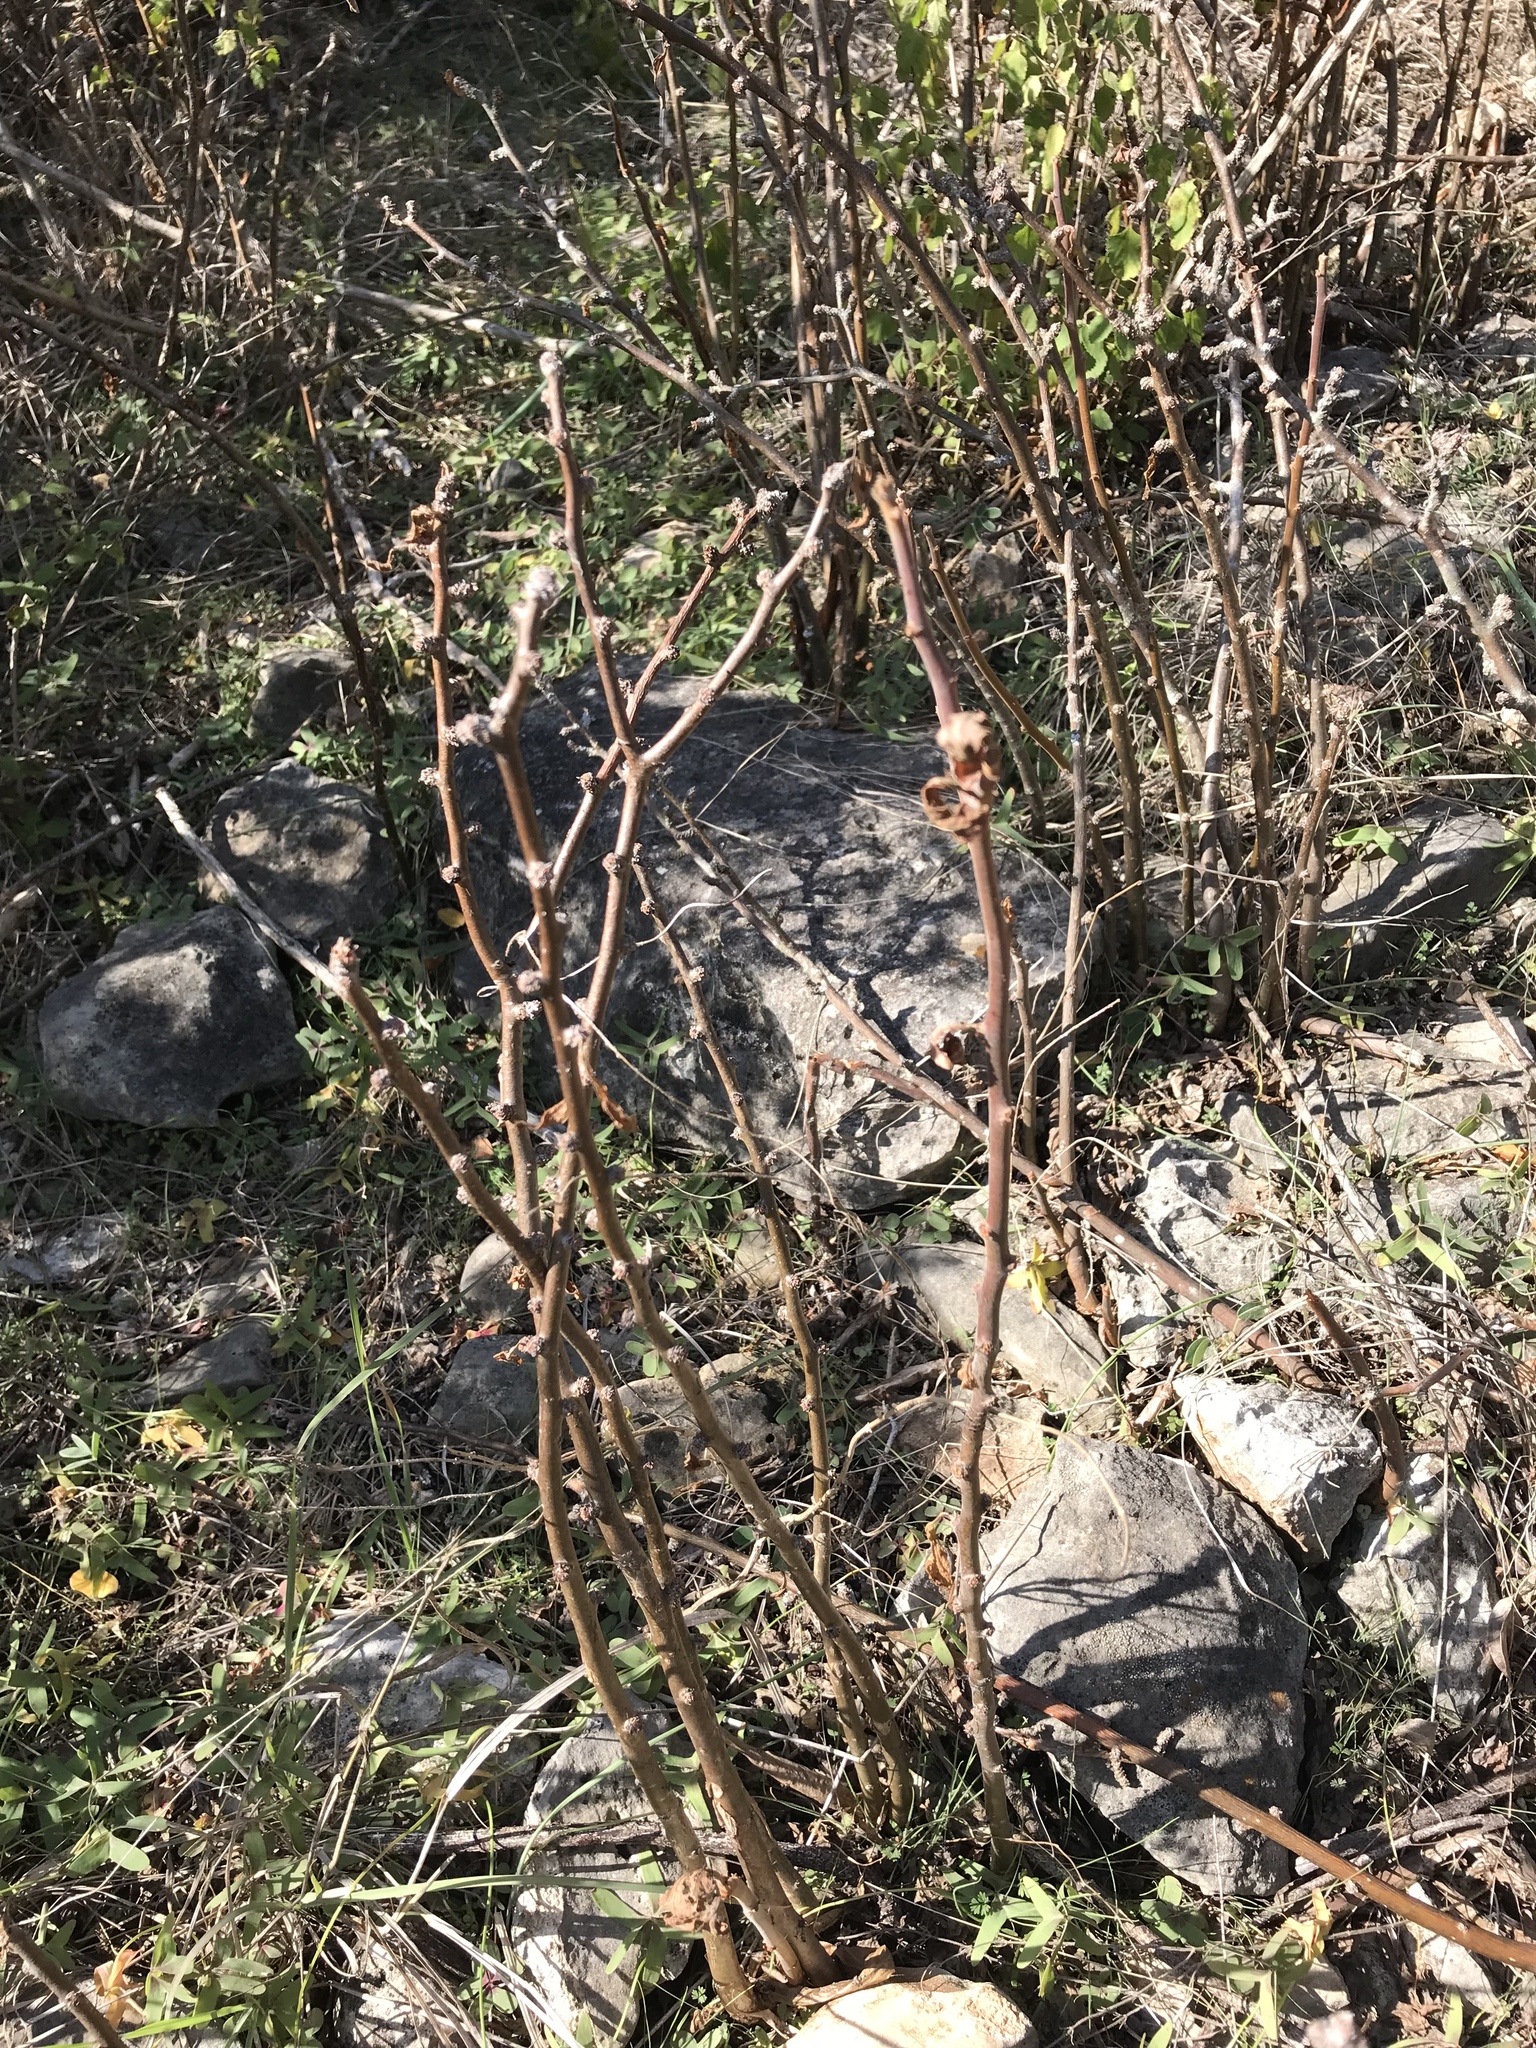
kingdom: Plantae
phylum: Tracheophyta
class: Magnoliopsida
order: Malpighiales
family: Euphorbiaceae
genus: Jatropha
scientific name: Jatropha dioica
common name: Leatherstem
